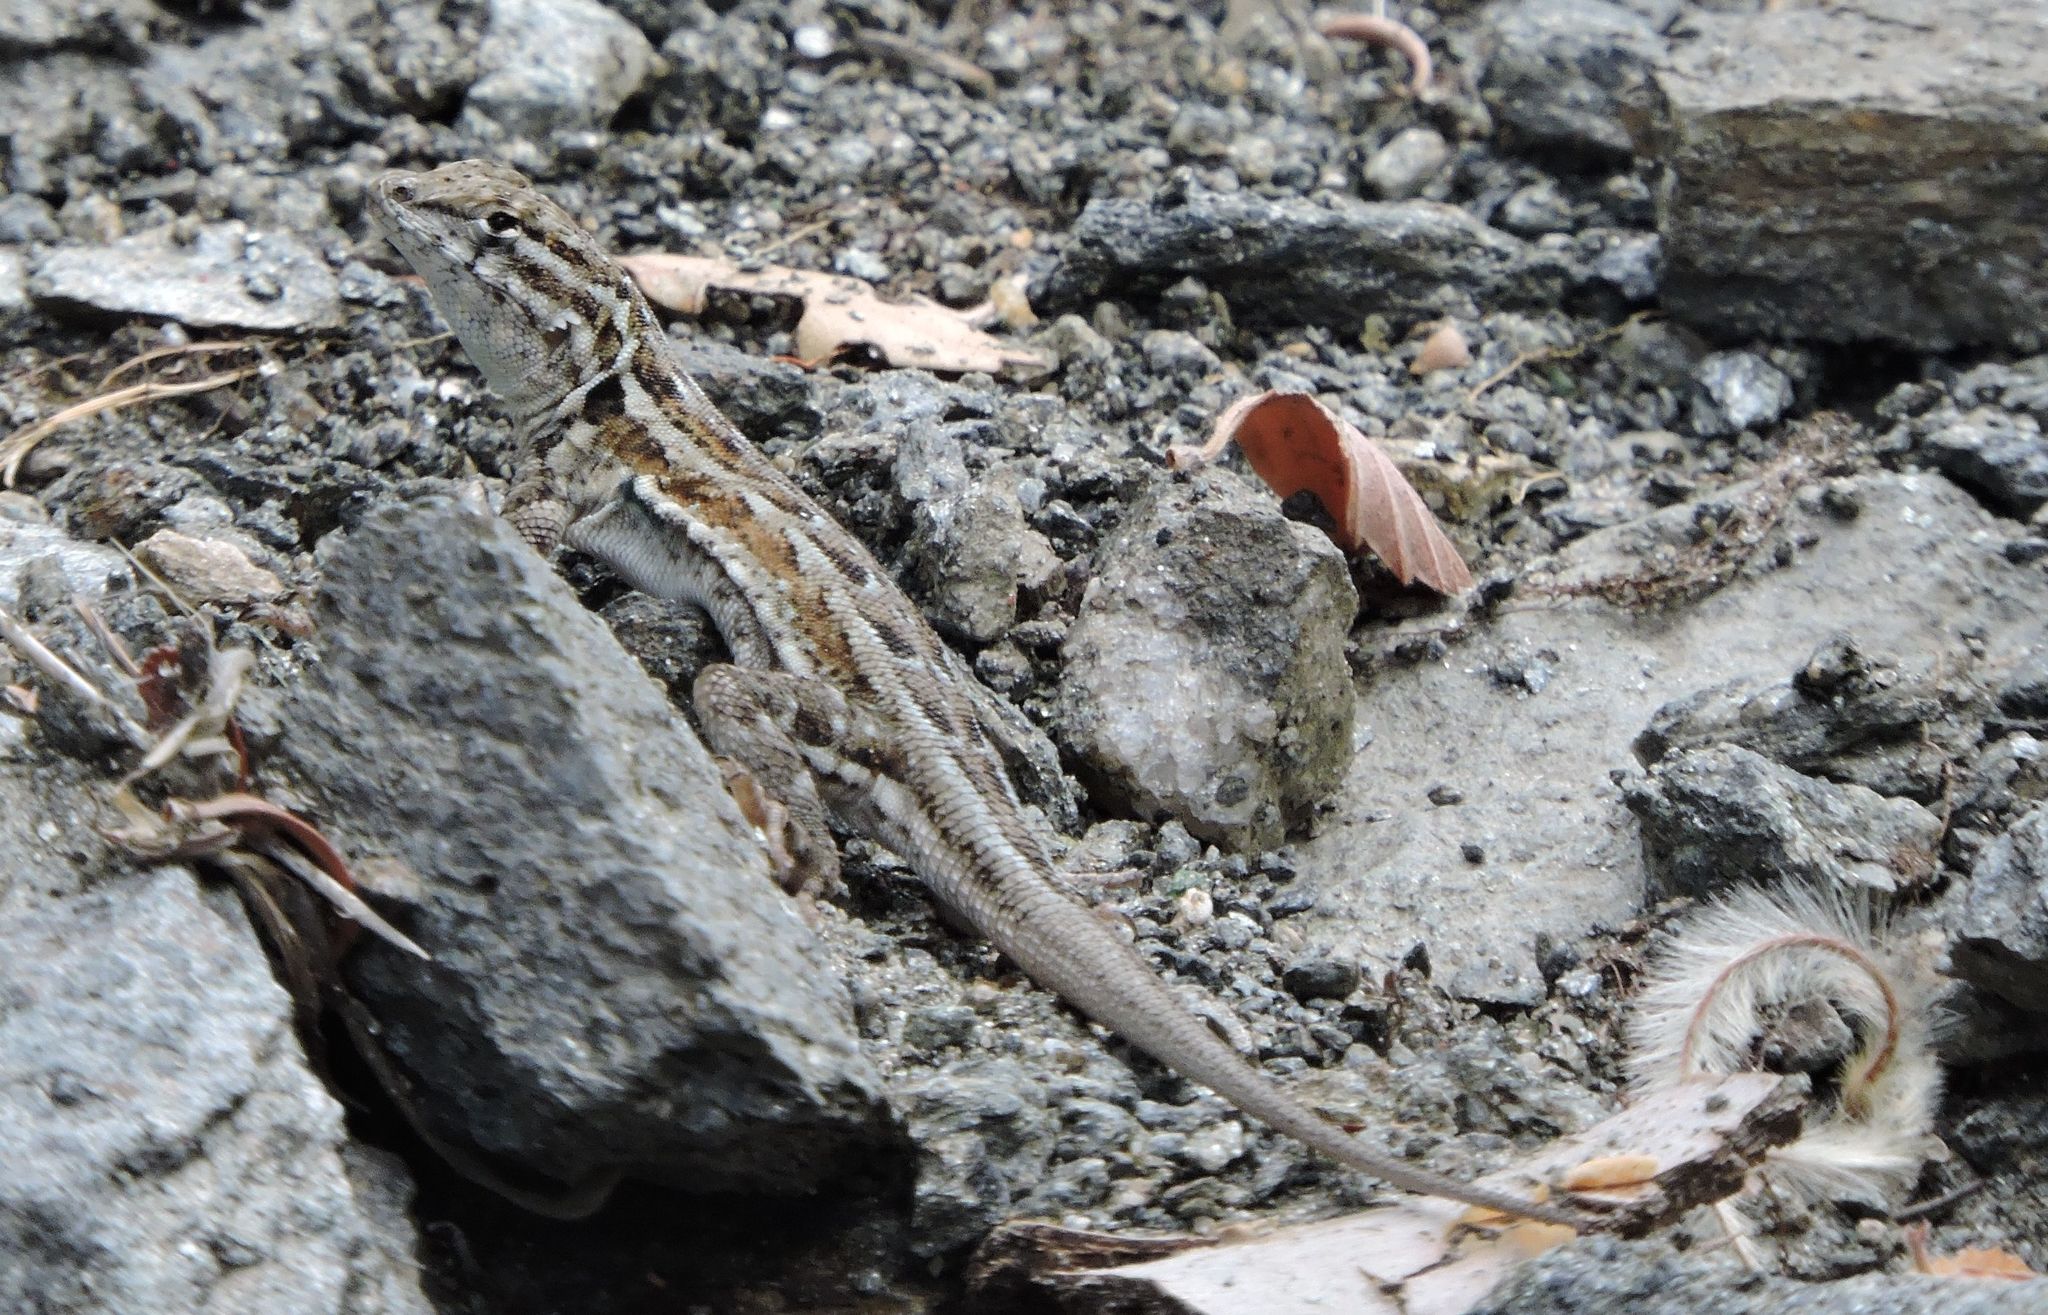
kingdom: Animalia
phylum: Chordata
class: Squamata
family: Phrynosomatidae
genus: Uta
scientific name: Uta stansburiana
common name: Side-blotched lizard
